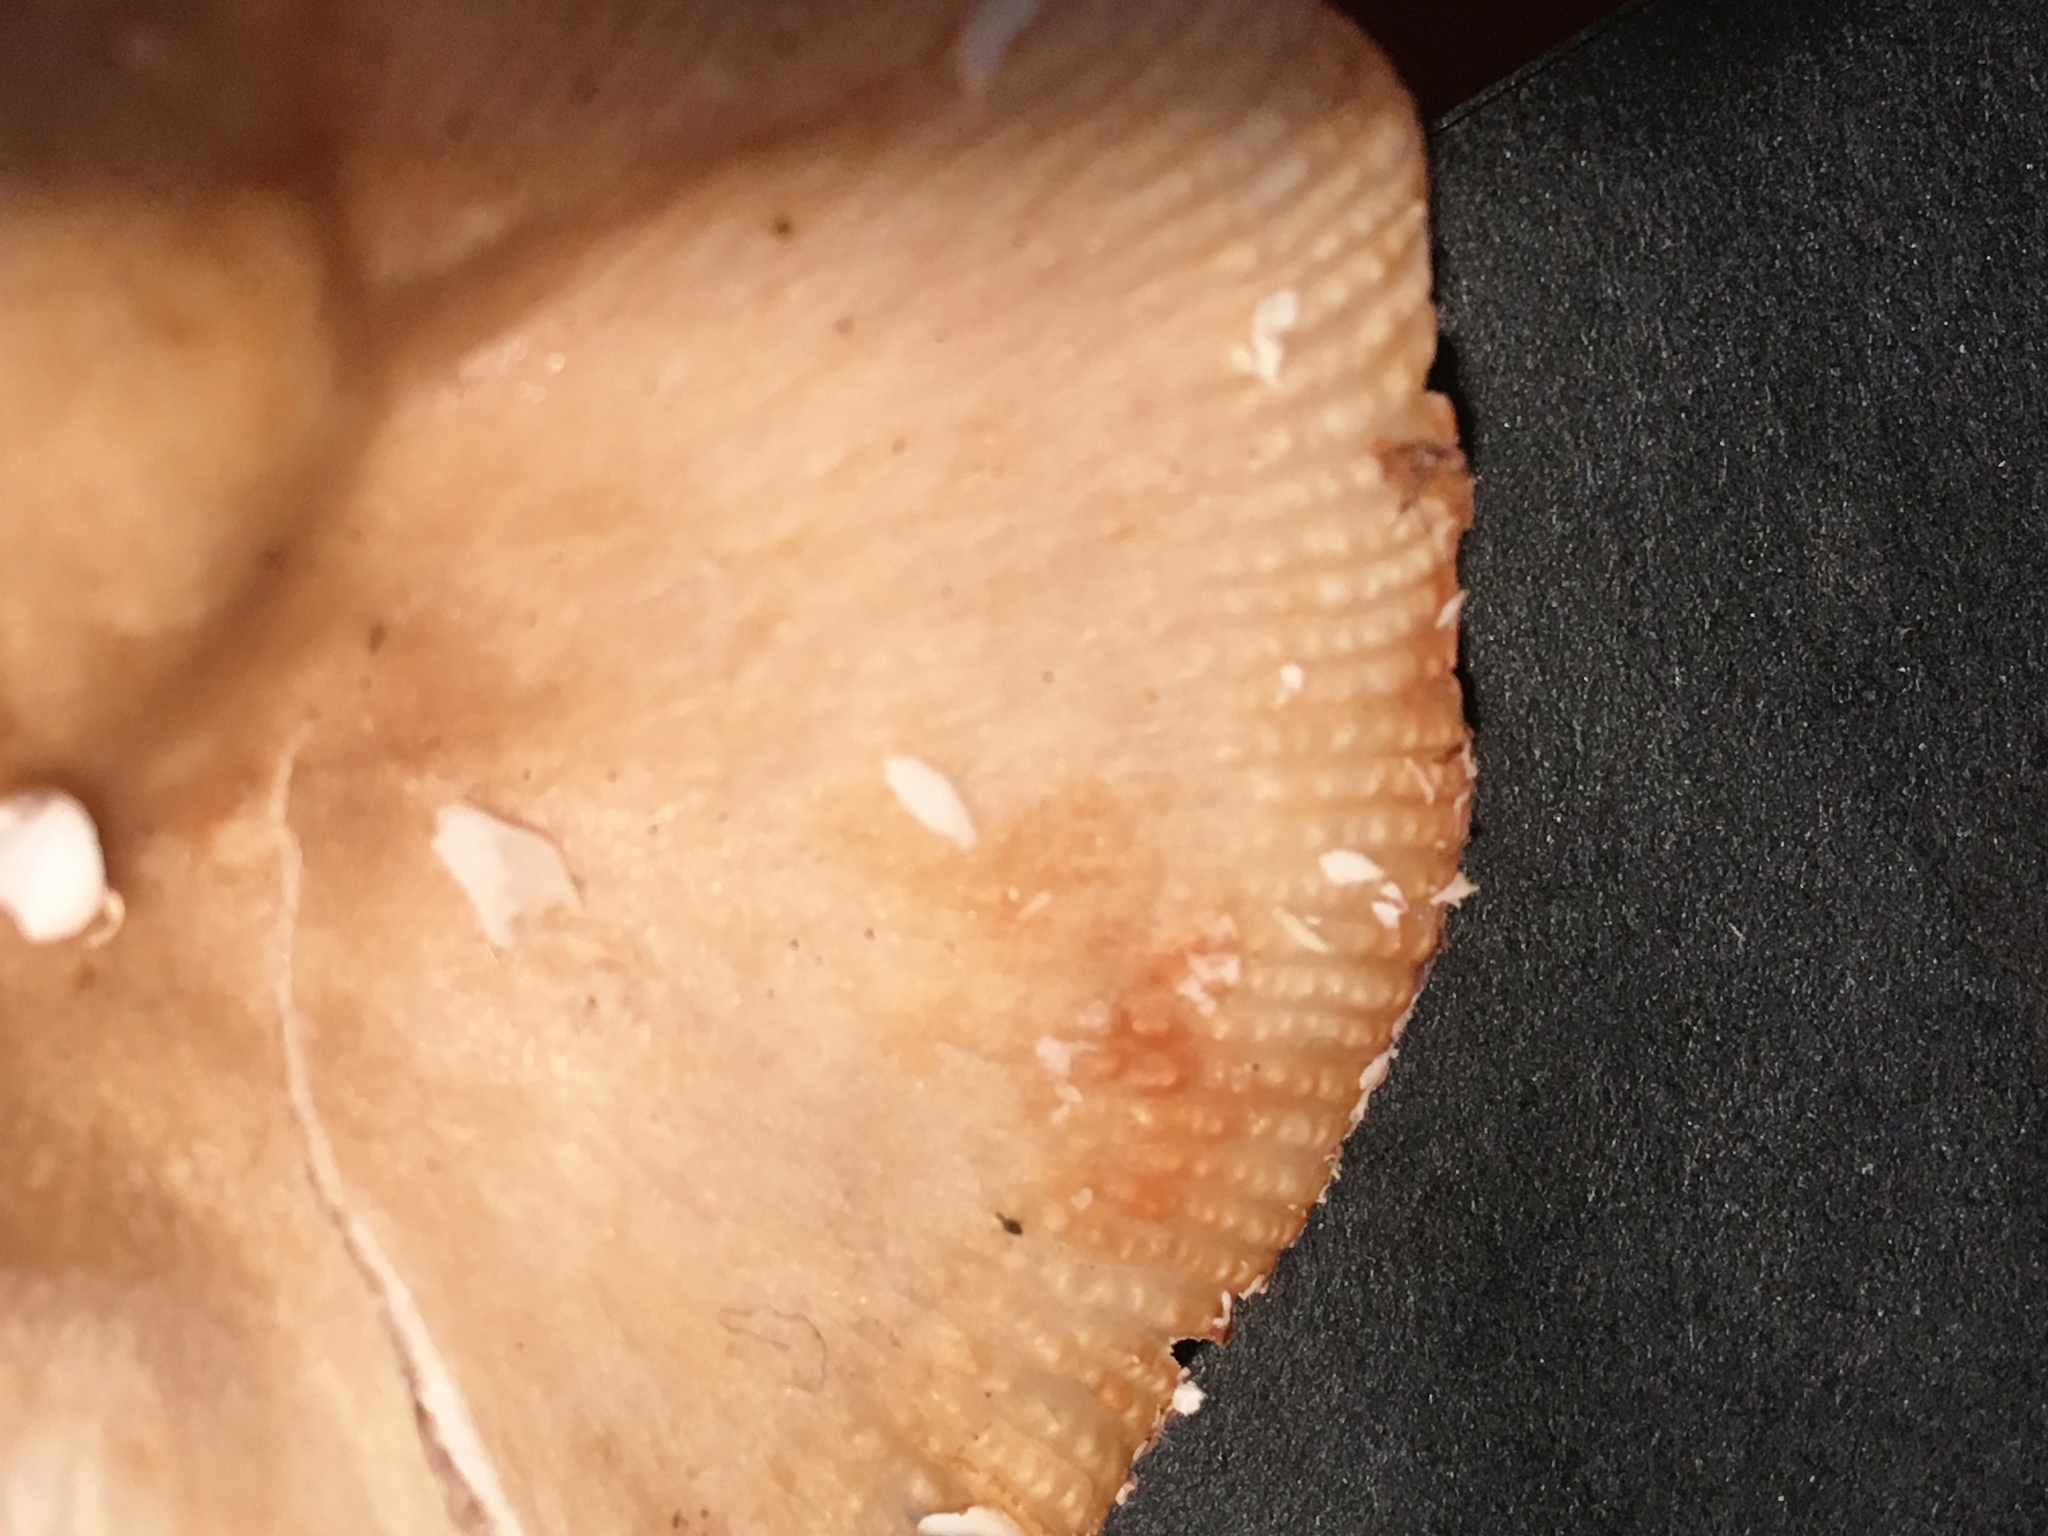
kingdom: Fungi
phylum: Basidiomycota
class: Agaricomycetes
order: Russulales
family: Russulaceae
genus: Russula
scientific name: Russula pectinatoides
